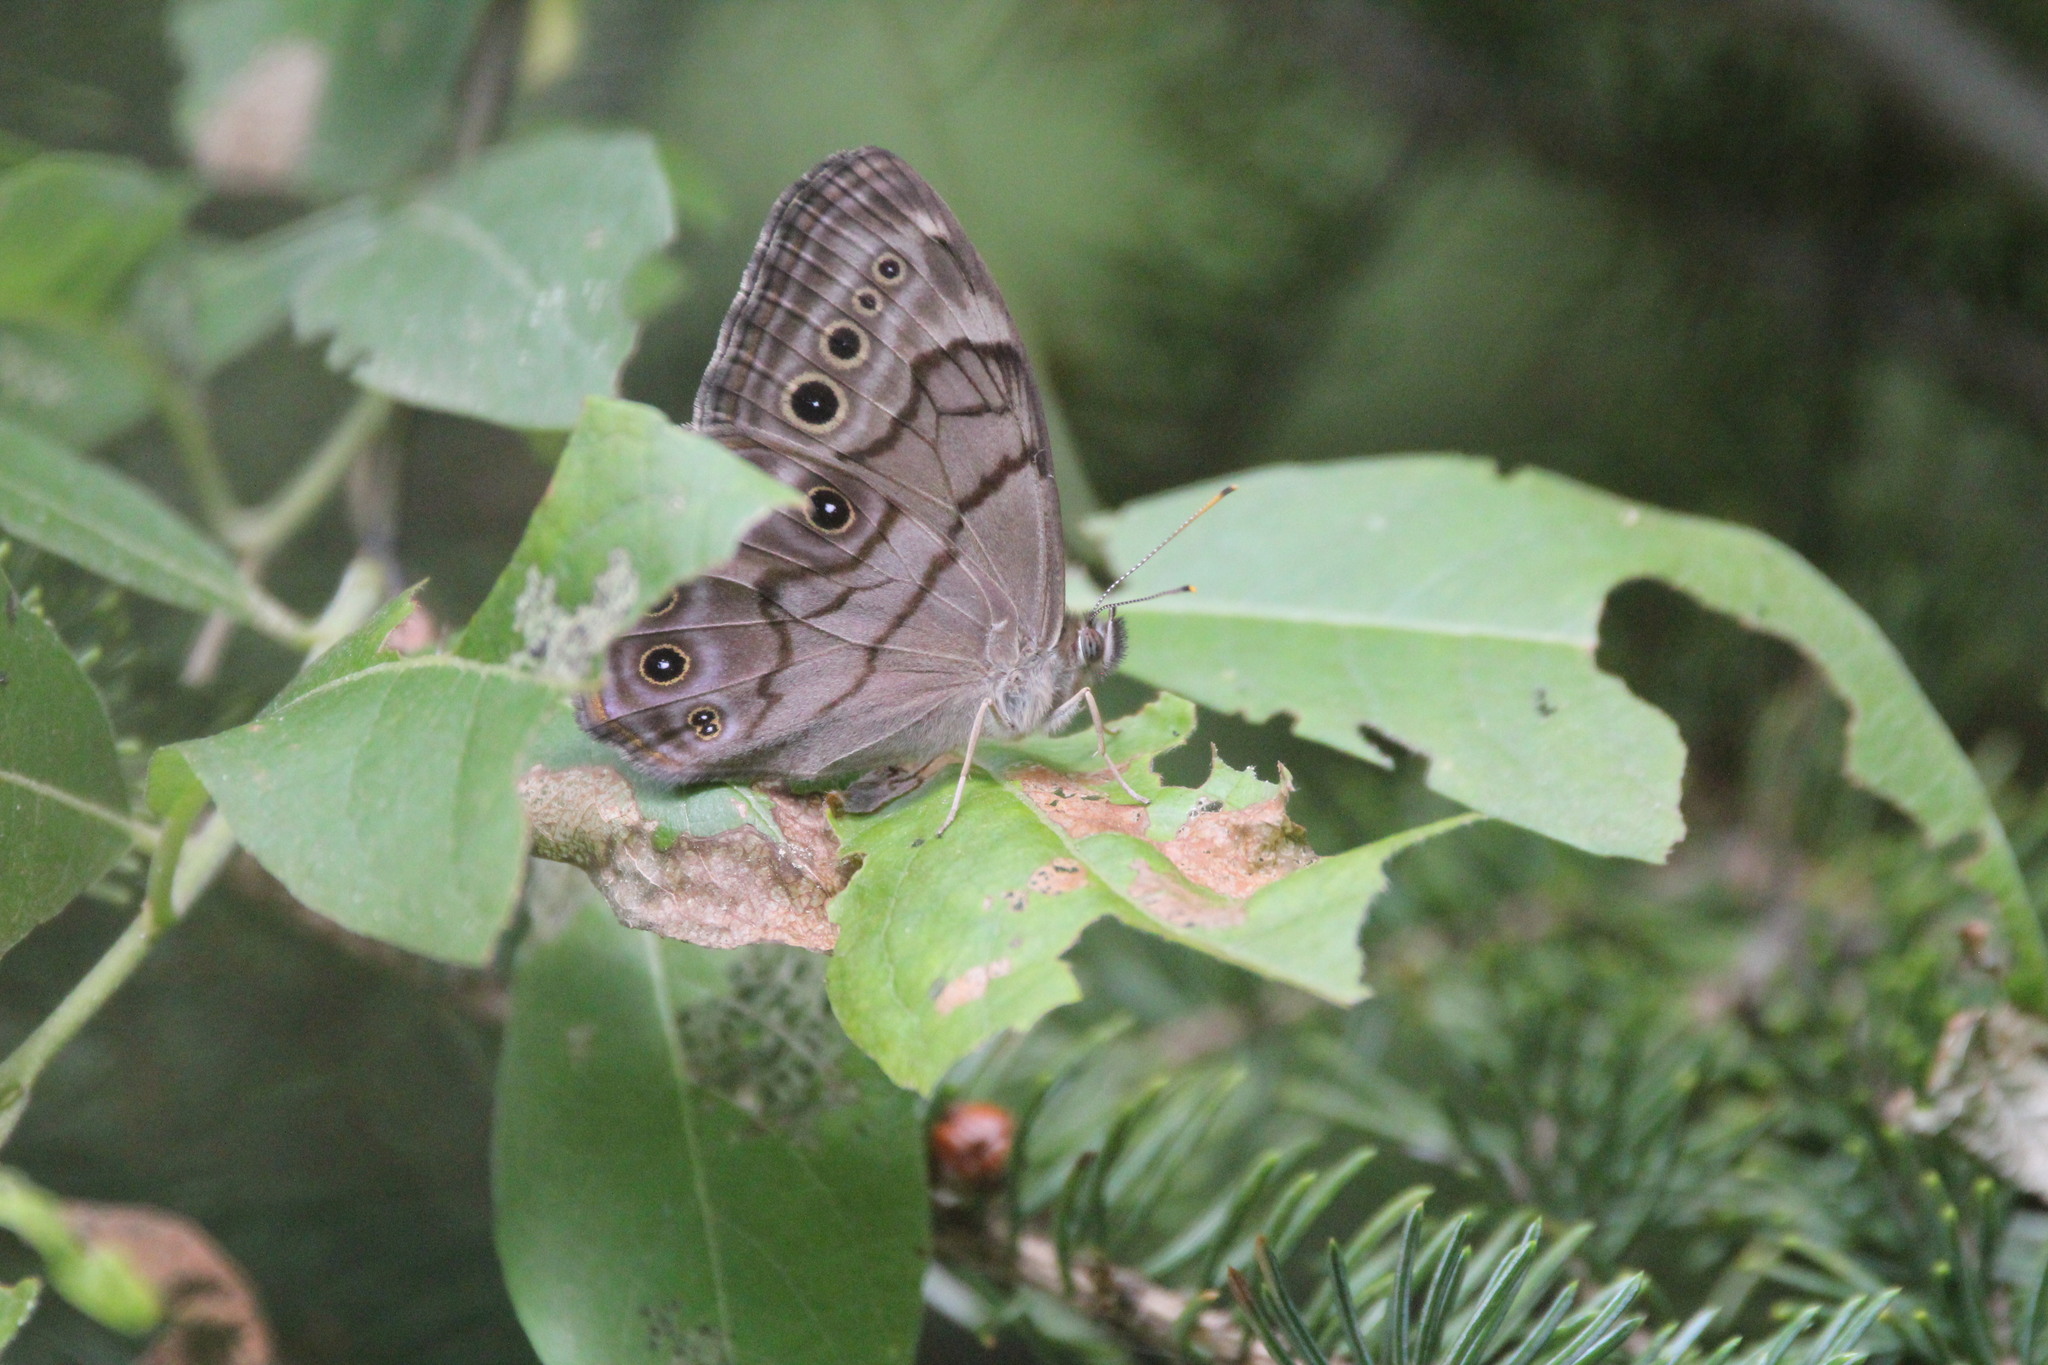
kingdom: Animalia
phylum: Arthropoda
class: Insecta
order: Lepidoptera
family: Nymphalidae
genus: Lethe
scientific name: Lethe anthedon
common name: Northern pearly-eye
